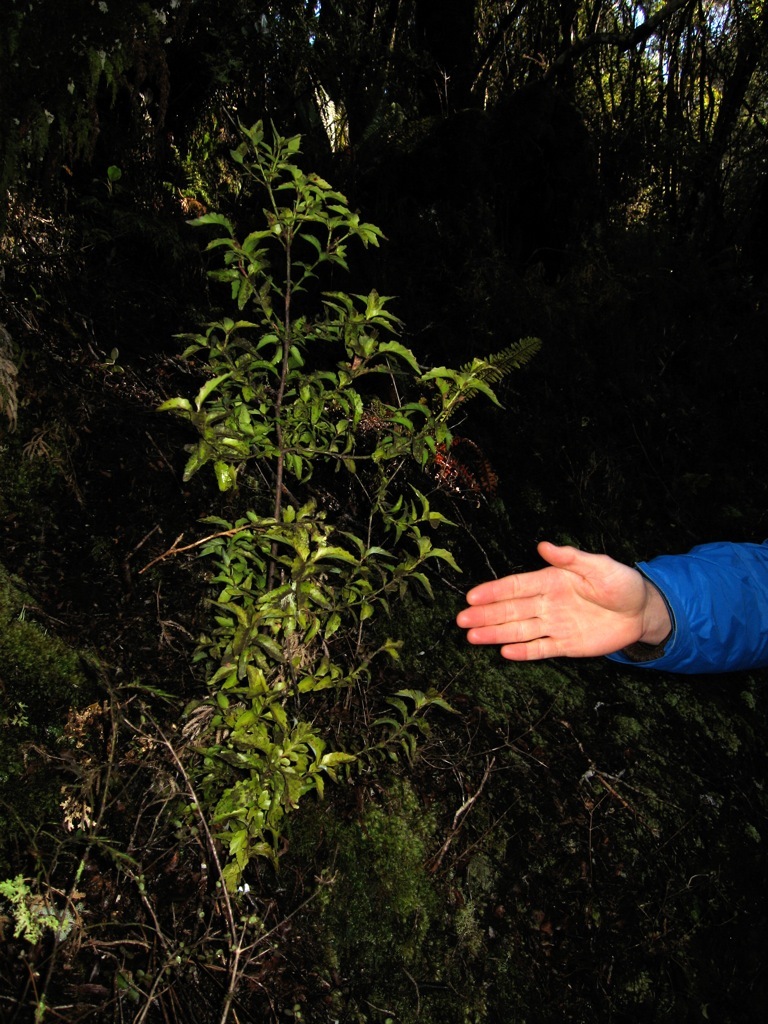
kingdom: Plantae
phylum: Tracheophyta
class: Pinopsida
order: Pinales
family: Phyllocladaceae
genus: Phyllocladus
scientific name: Phyllocladus trichomanoides
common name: Celery pine
